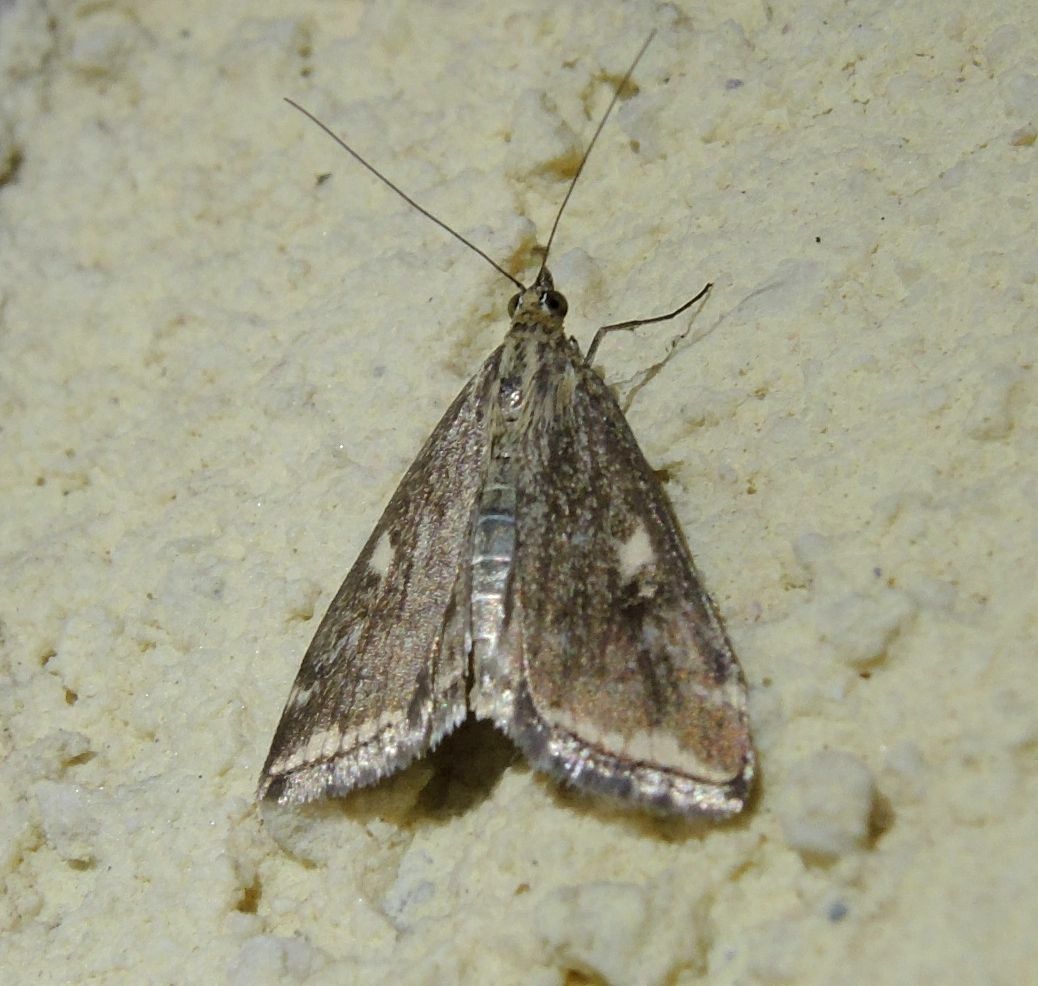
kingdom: Animalia
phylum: Arthropoda
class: Insecta
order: Lepidoptera
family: Crambidae
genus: Loxostege
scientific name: Loxostege sticticalis
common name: Crambid moth
